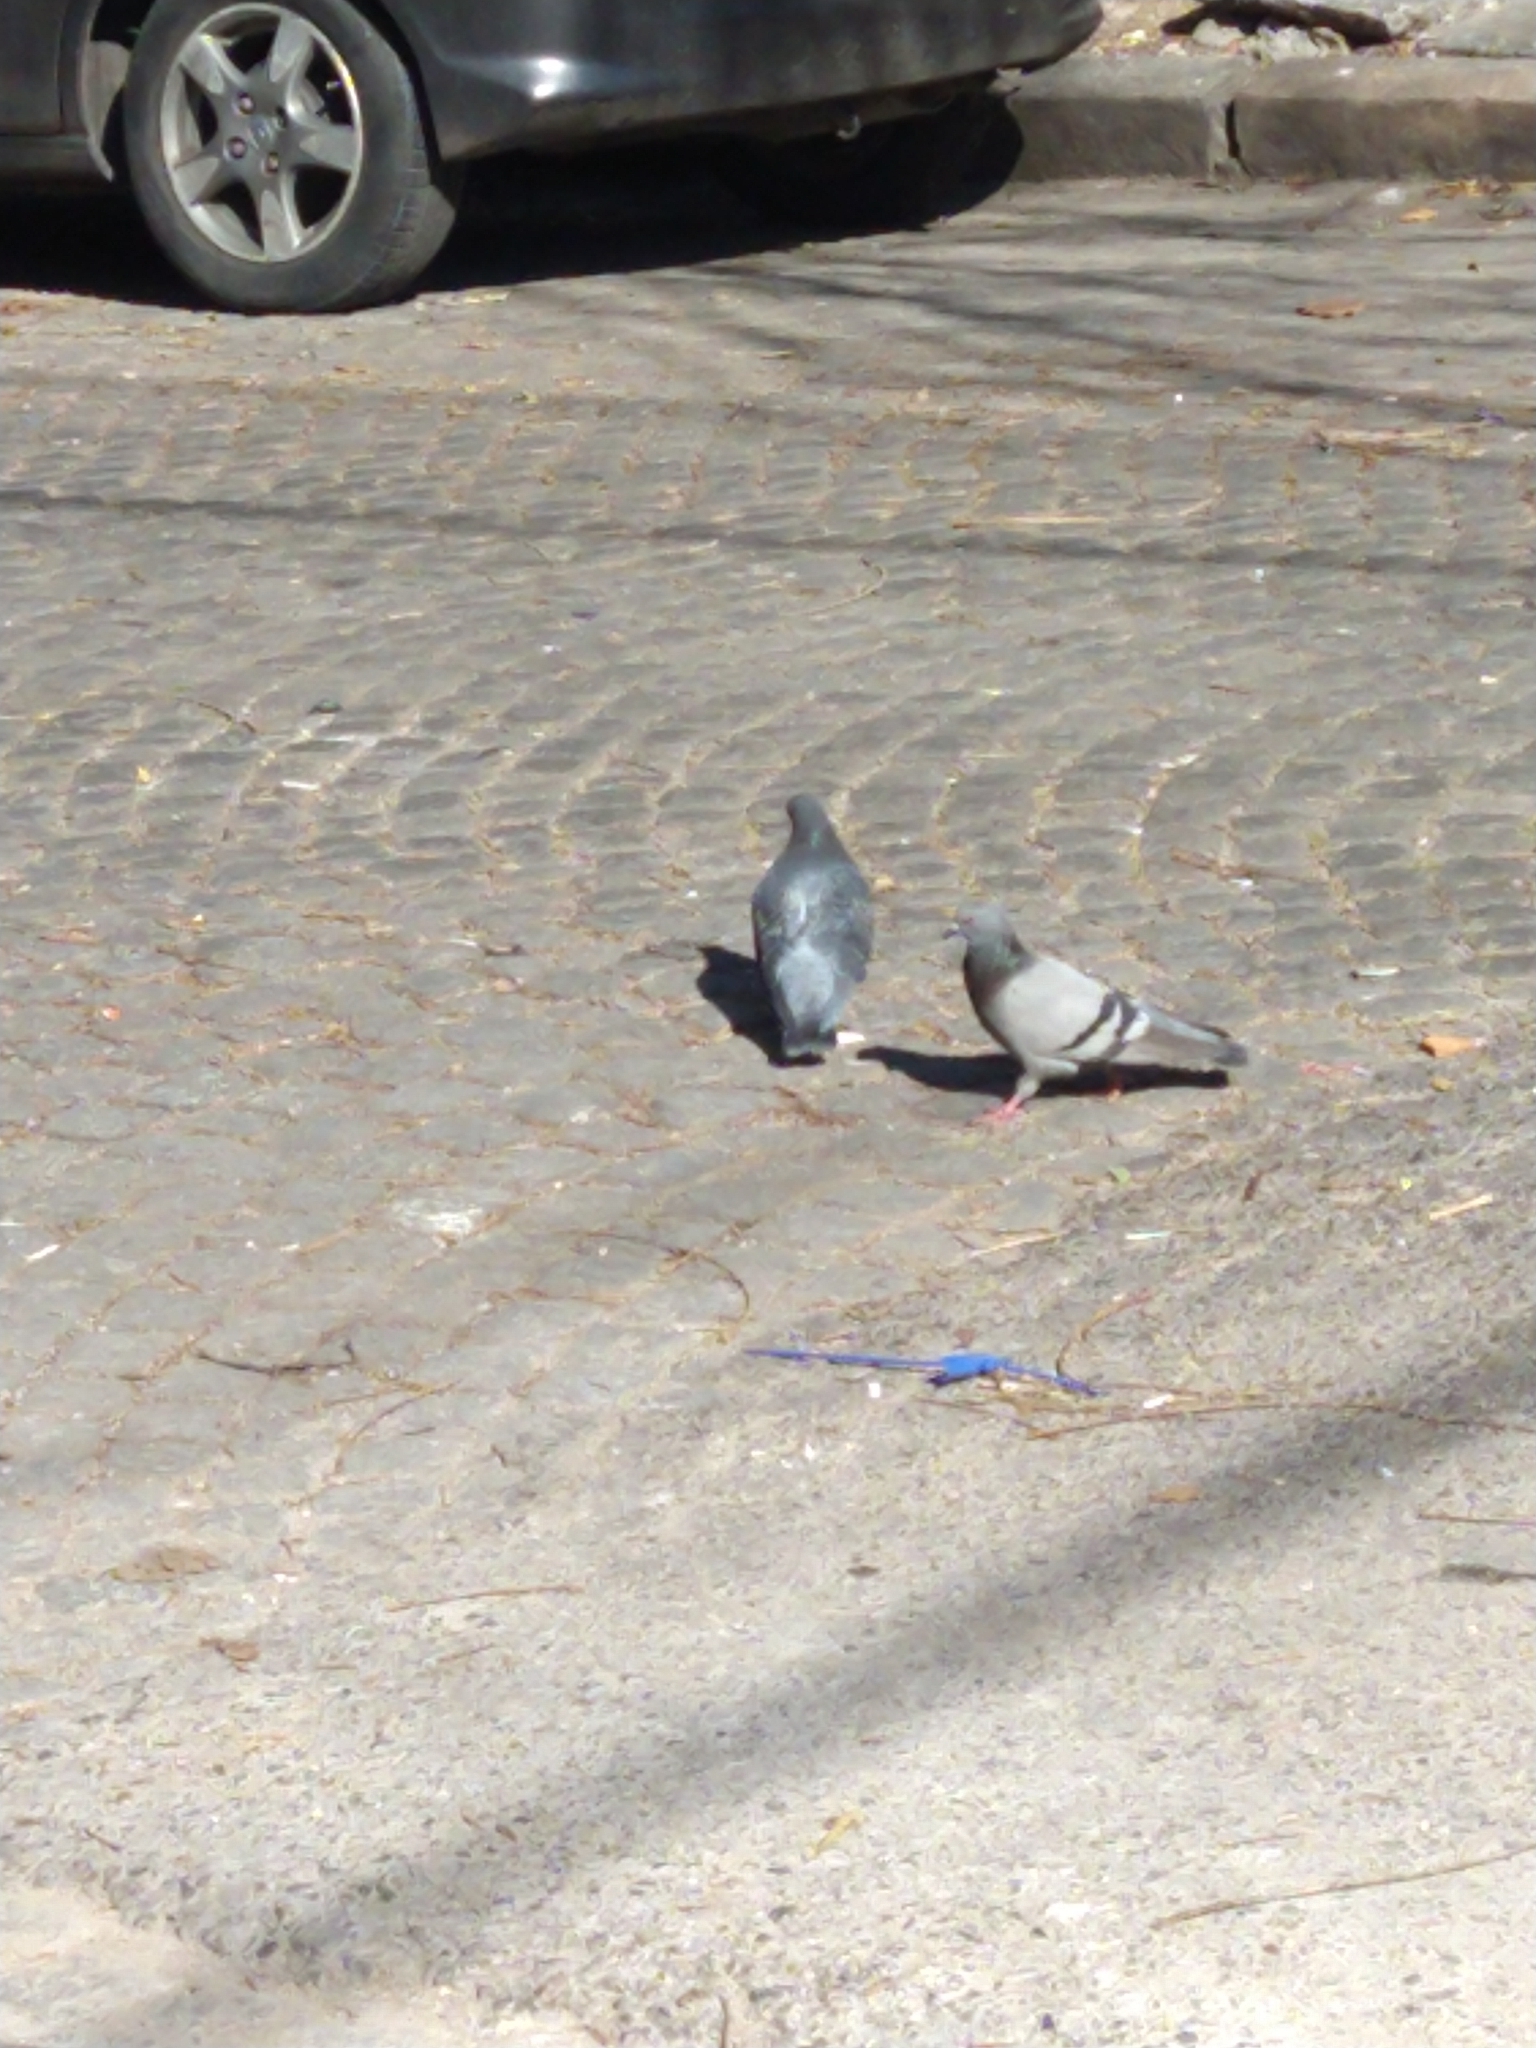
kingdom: Animalia
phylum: Chordata
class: Aves
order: Columbiformes
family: Columbidae
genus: Columba
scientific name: Columba livia
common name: Rock pigeon
